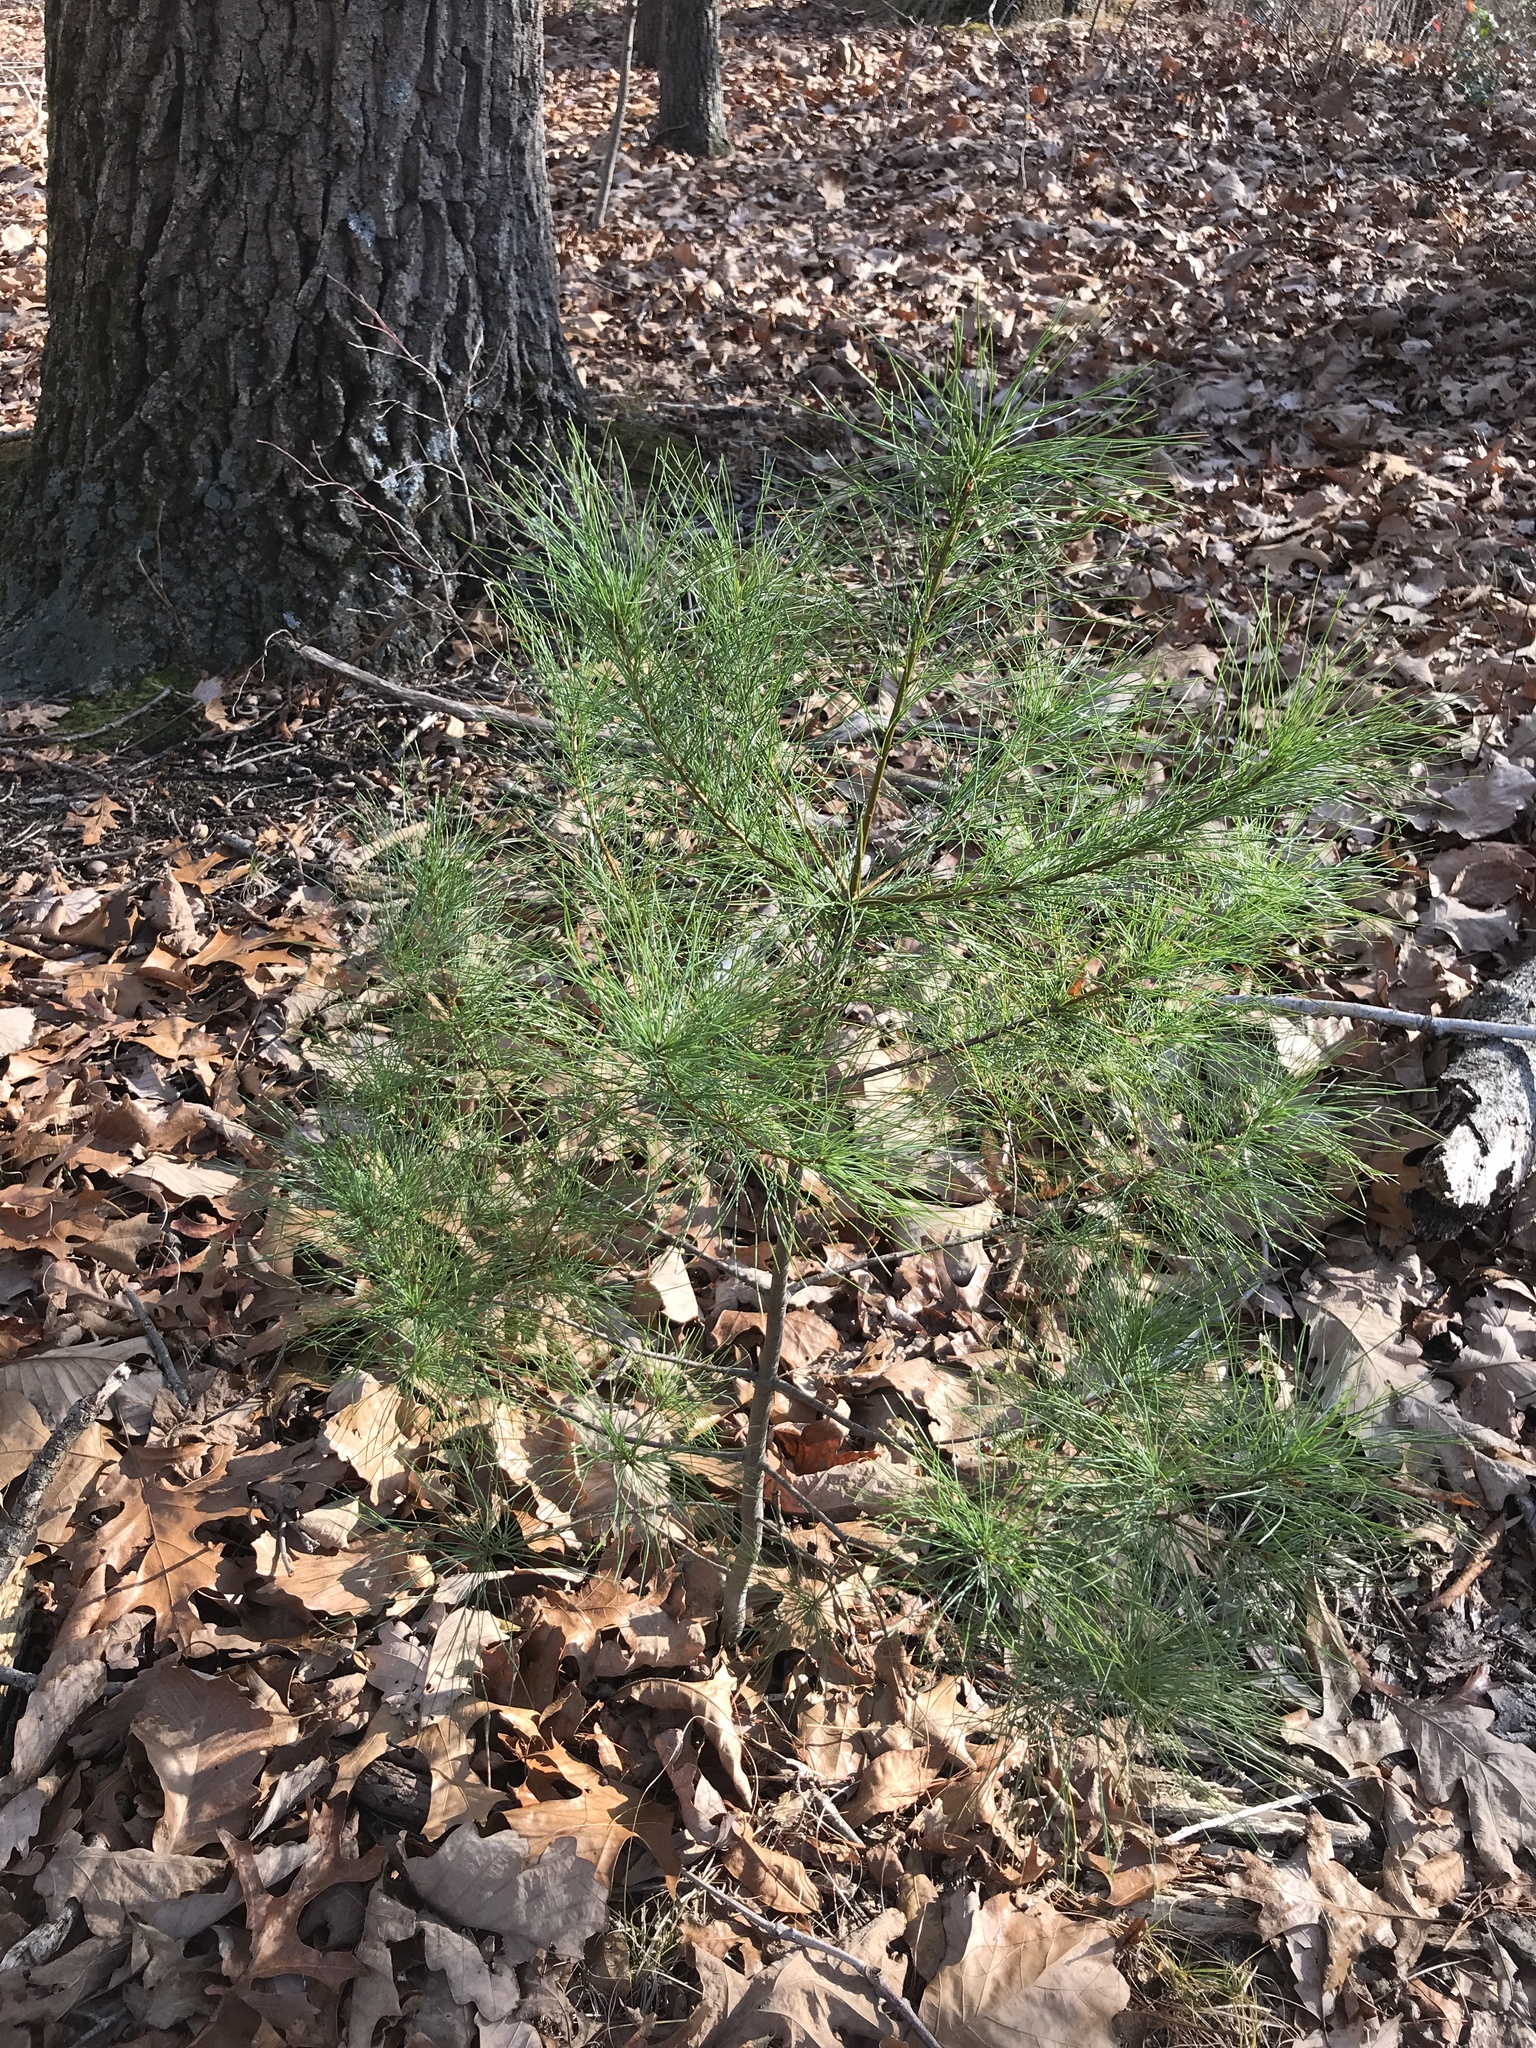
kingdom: Plantae
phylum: Tracheophyta
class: Pinopsida
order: Pinales
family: Pinaceae
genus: Pinus
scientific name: Pinus strobus
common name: Weymouth pine
